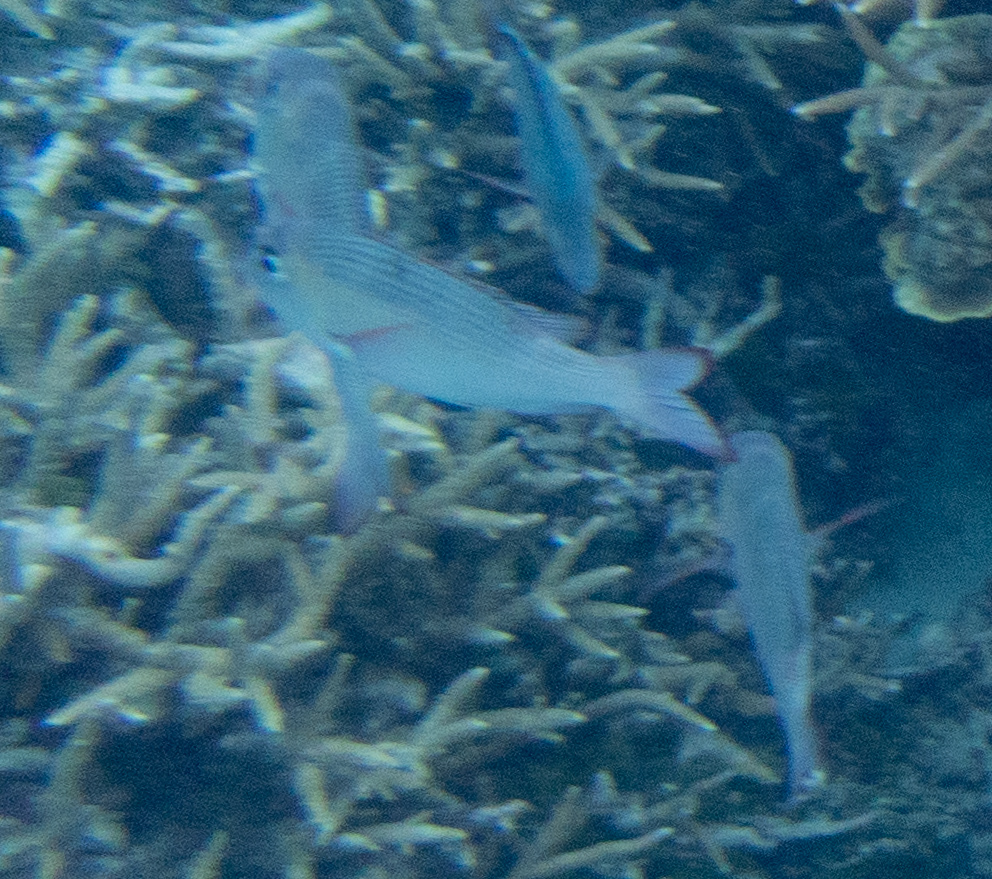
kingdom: Animalia
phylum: Chordata
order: Perciformes
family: Lethrinidae
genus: Monotaxis
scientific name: Monotaxis grandoculis
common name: Bigeye emperor
